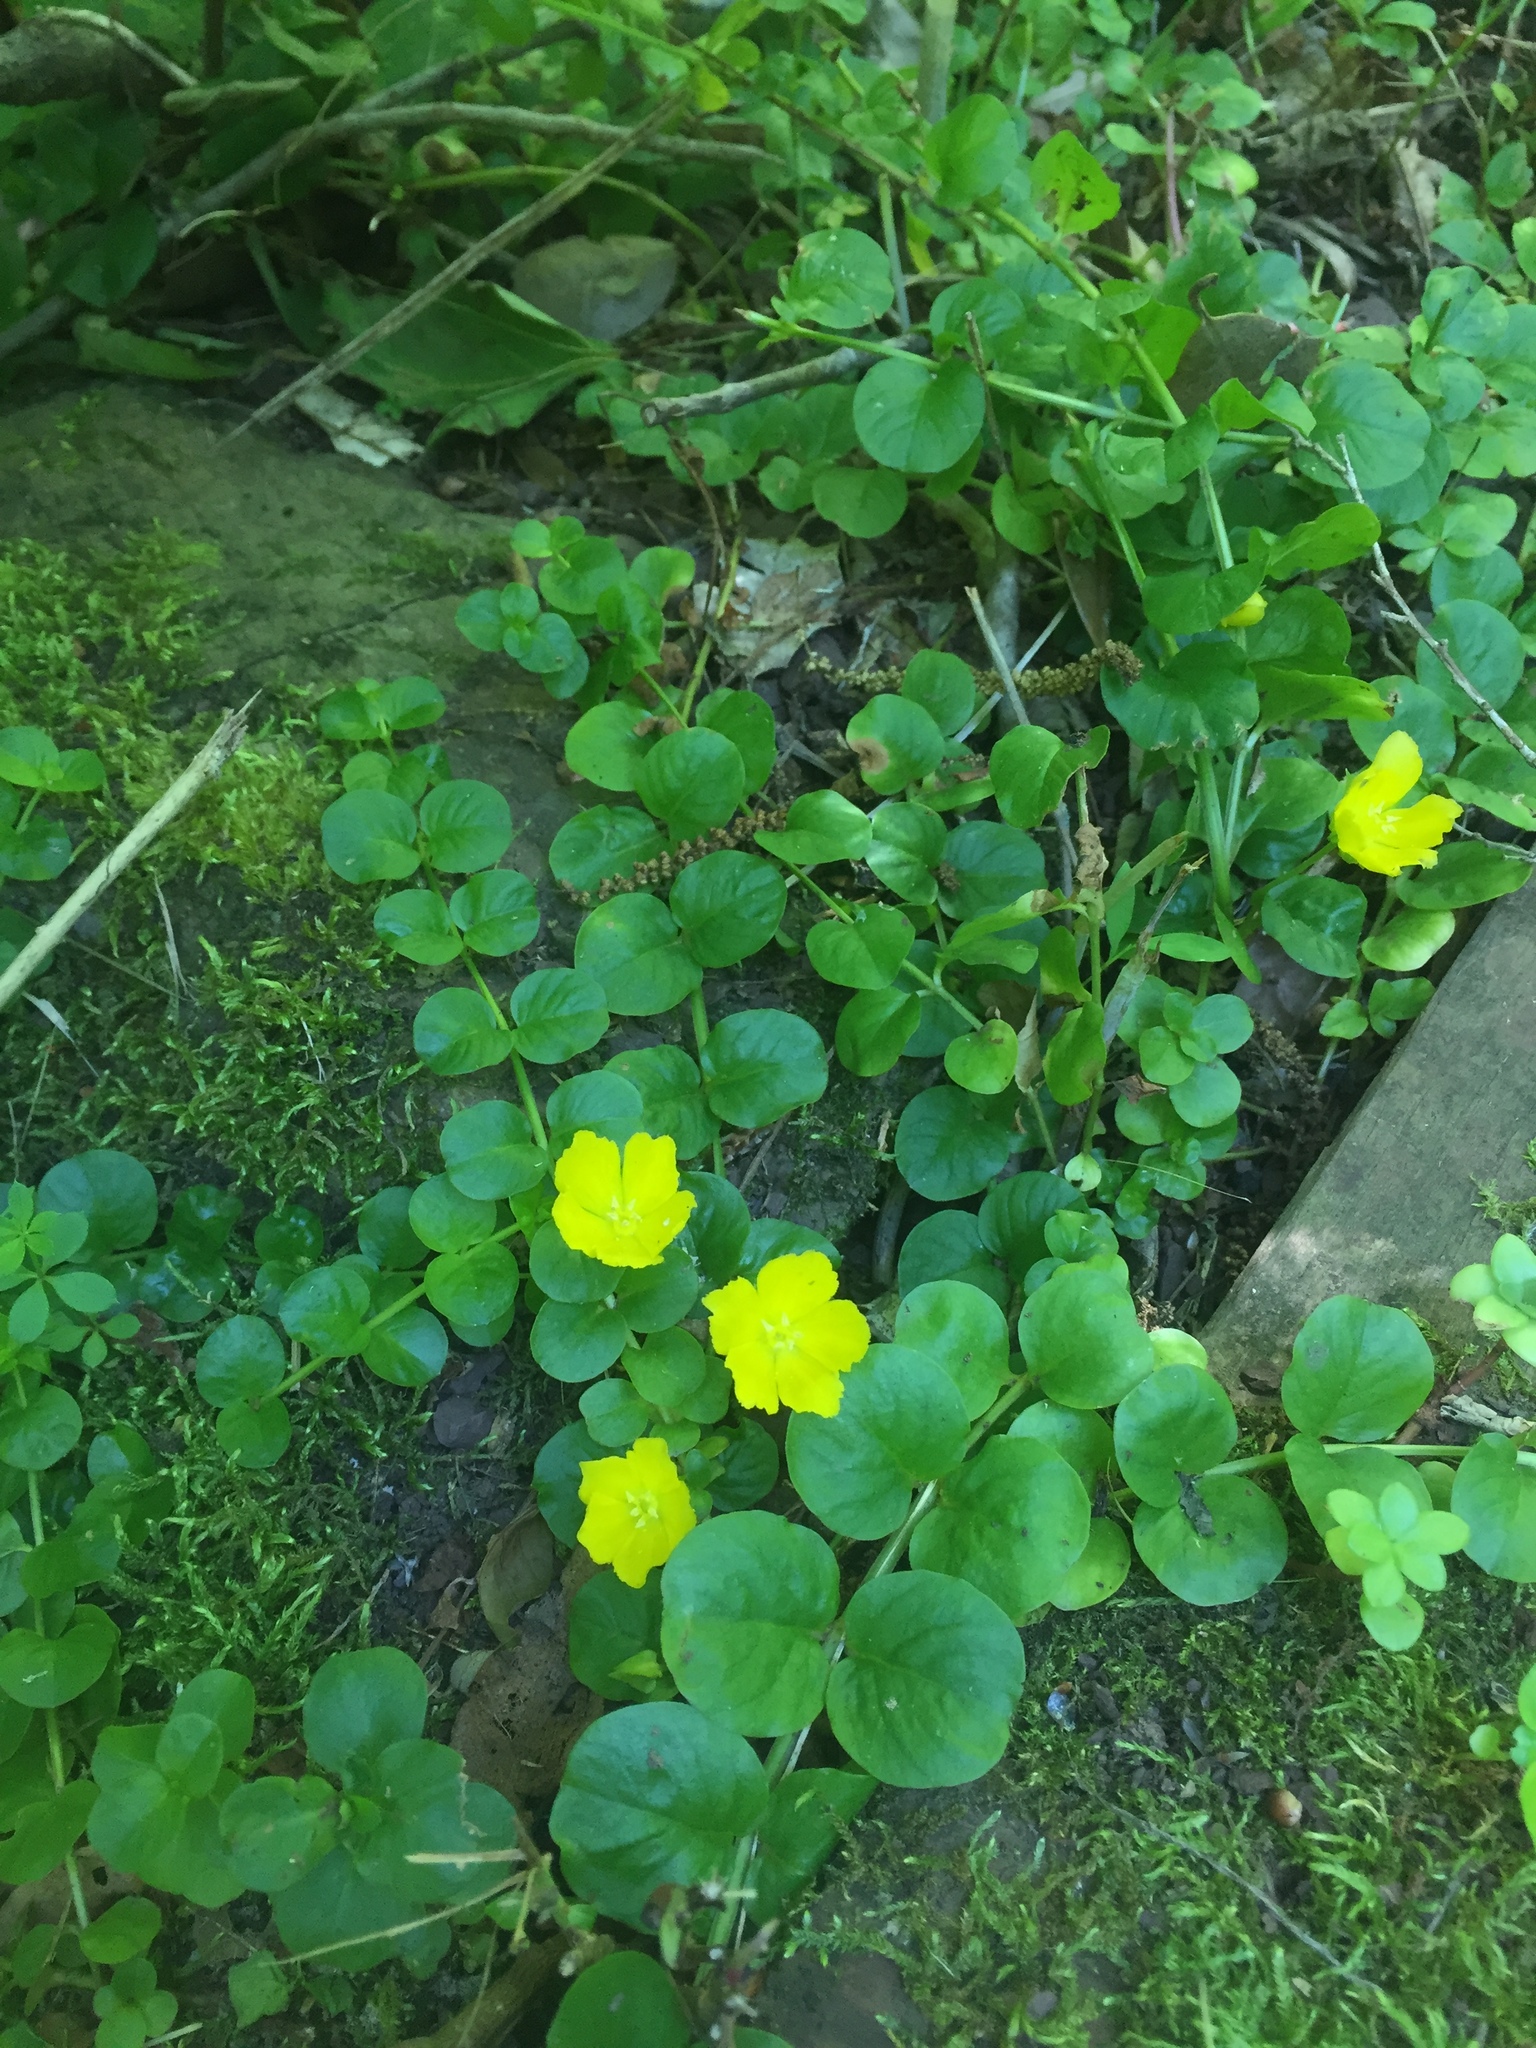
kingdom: Plantae
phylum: Tracheophyta
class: Magnoliopsida
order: Ericales
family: Primulaceae
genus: Lysimachia
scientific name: Lysimachia nummularia
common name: Moneywort
